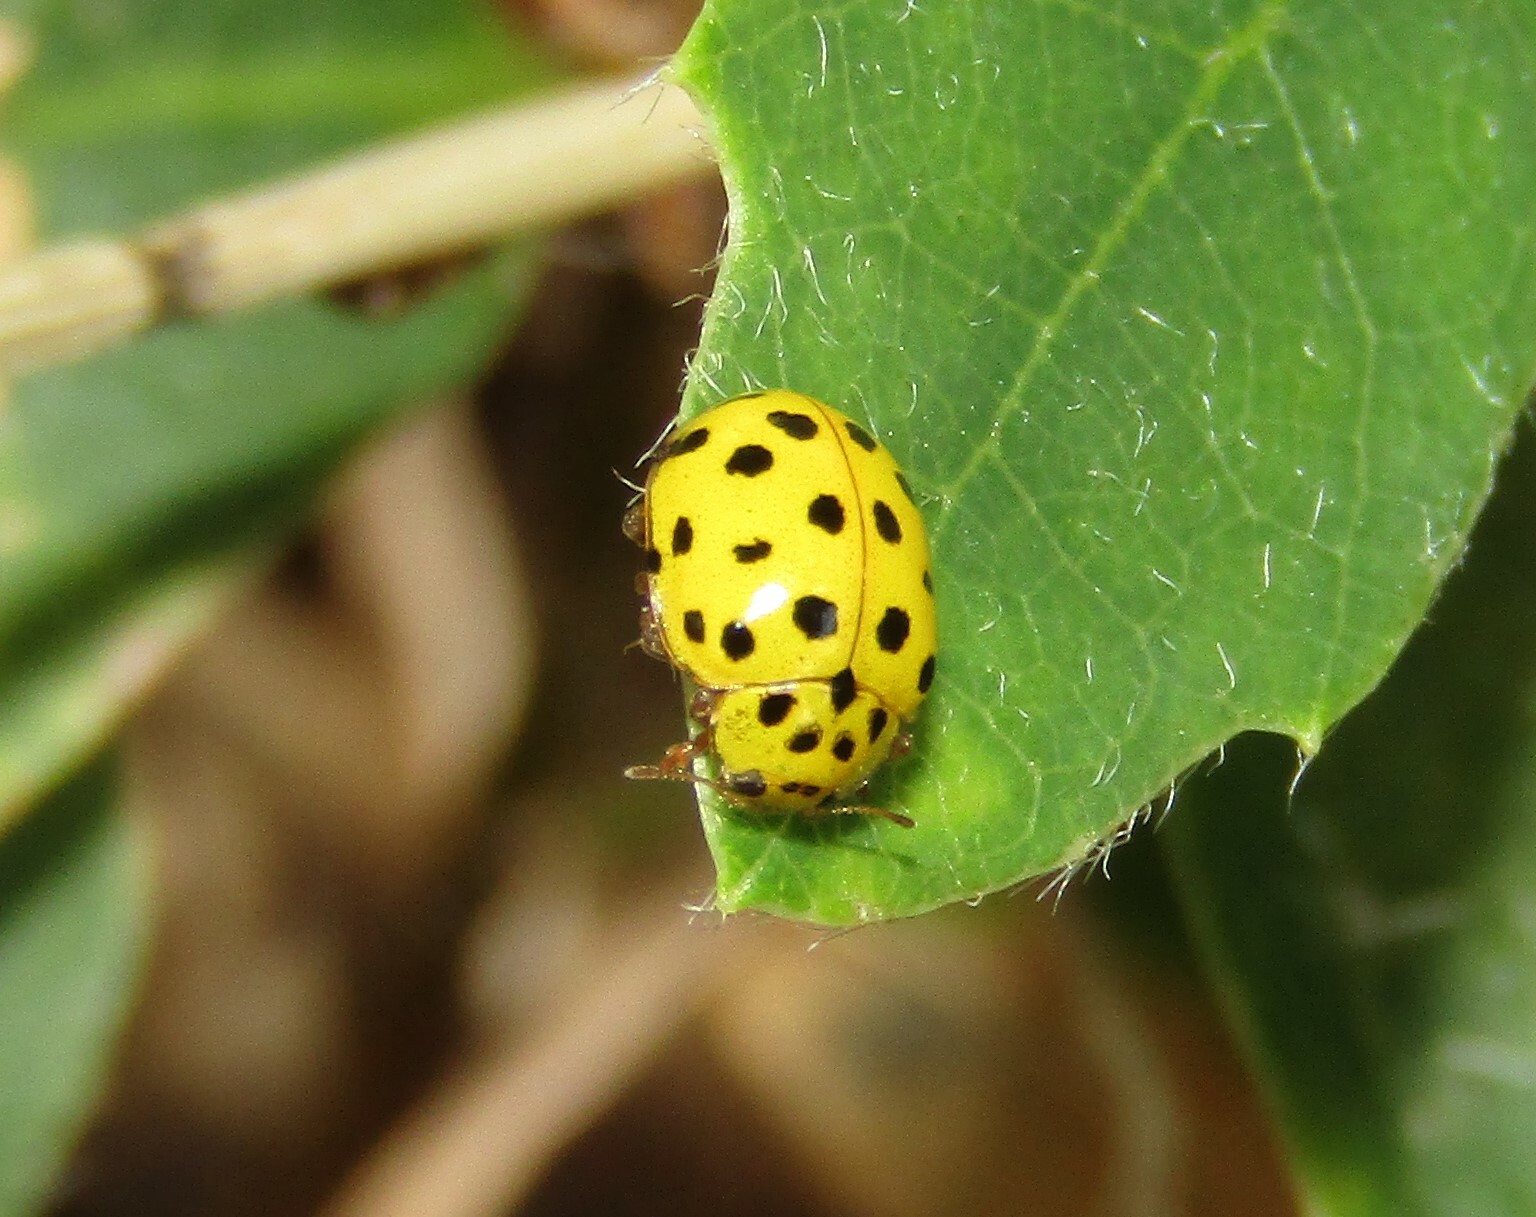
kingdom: Animalia
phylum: Arthropoda
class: Insecta
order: Coleoptera
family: Coccinellidae
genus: Psyllobora
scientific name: Psyllobora vigintiduopunctata
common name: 22-spot ladybird
